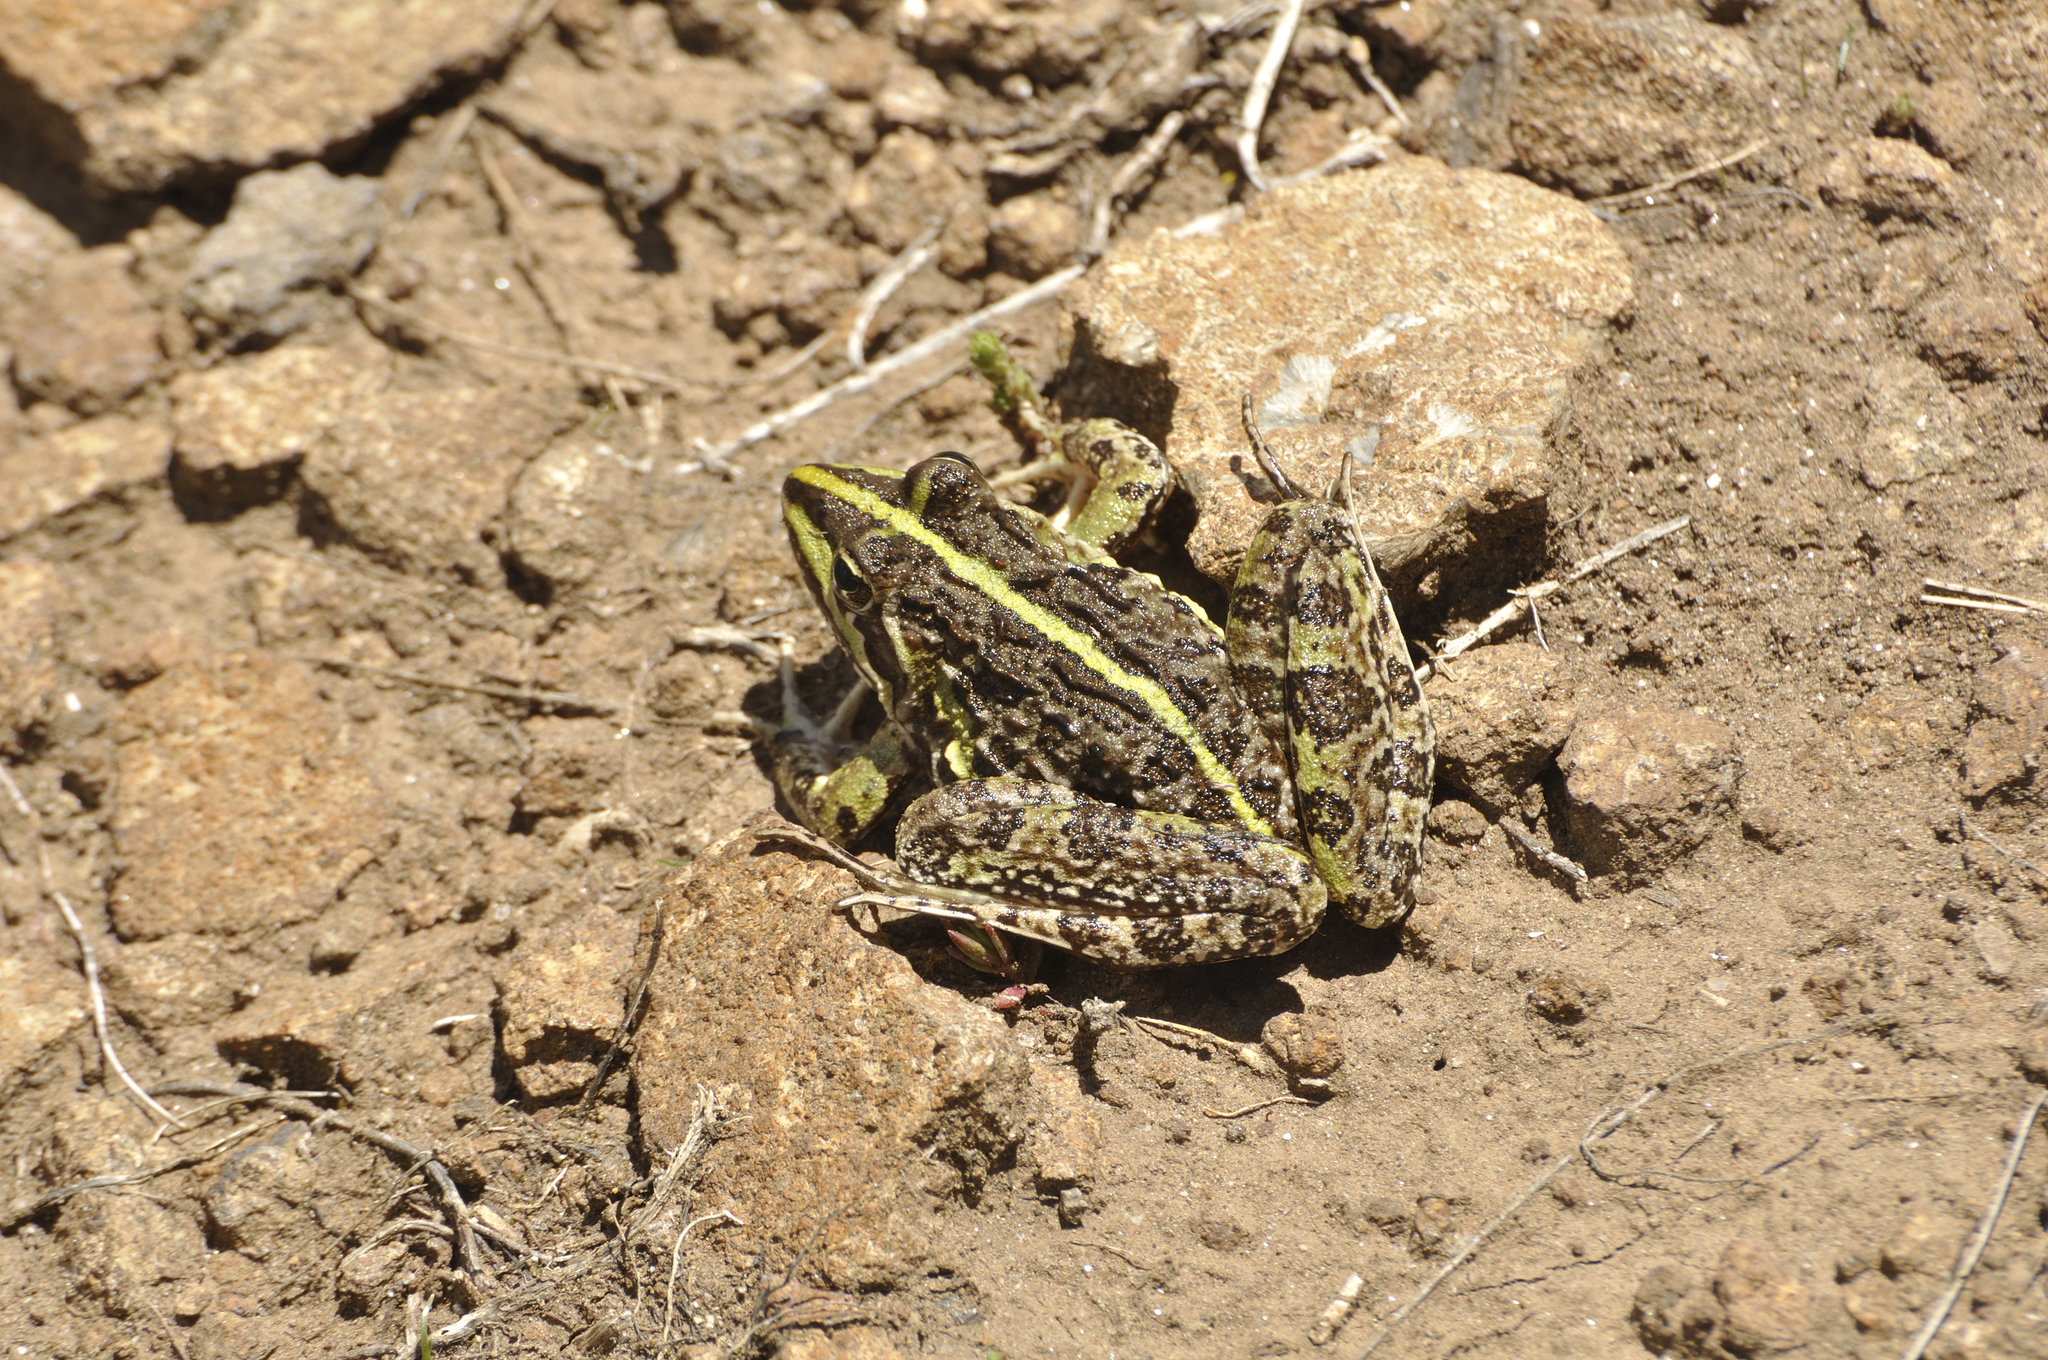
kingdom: Animalia
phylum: Chordata
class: Amphibia
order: Anura
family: Pyxicephalidae
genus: Amietia
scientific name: Amietia delalandii
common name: Delalande's river frog
